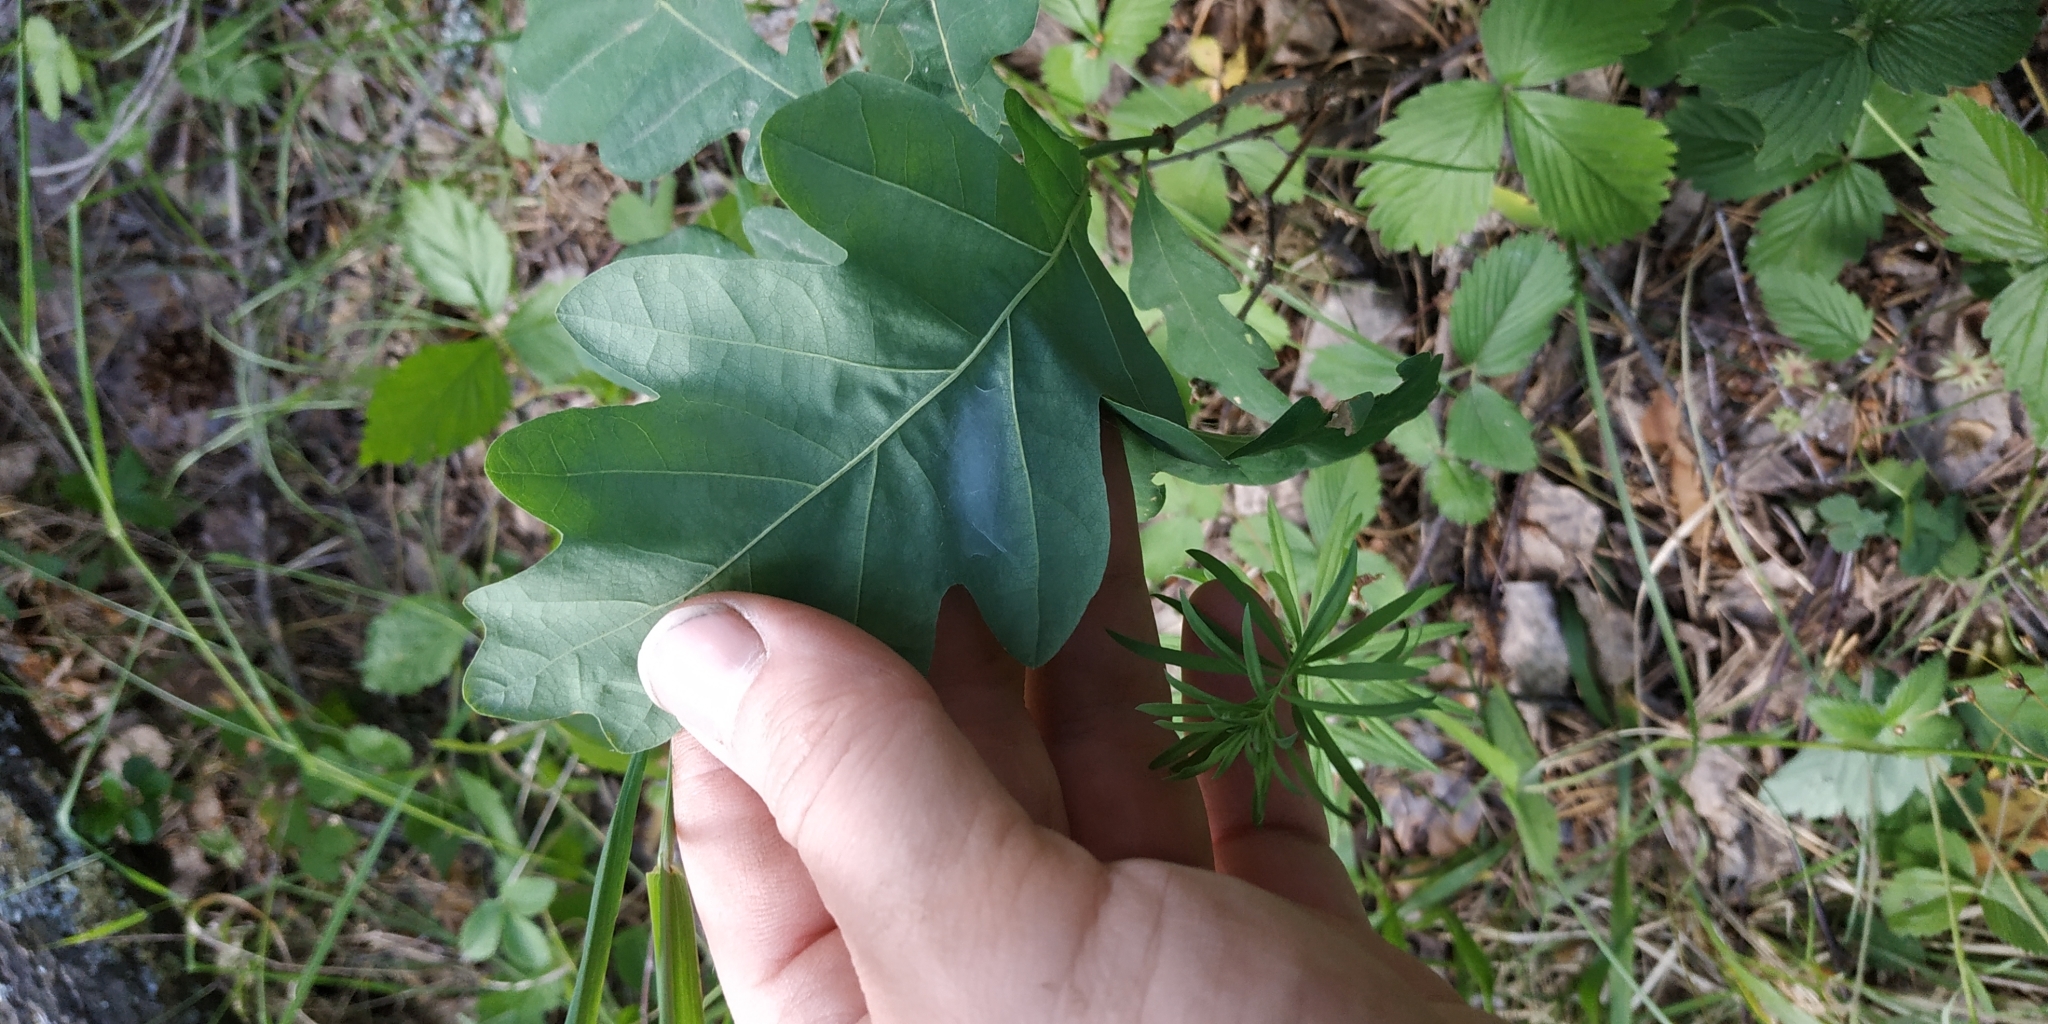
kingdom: Plantae
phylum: Tracheophyta
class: Magnoliopsida
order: Fagales
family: Fagaceae
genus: Quercus
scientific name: Quercus robur
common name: Pedunculate oak
